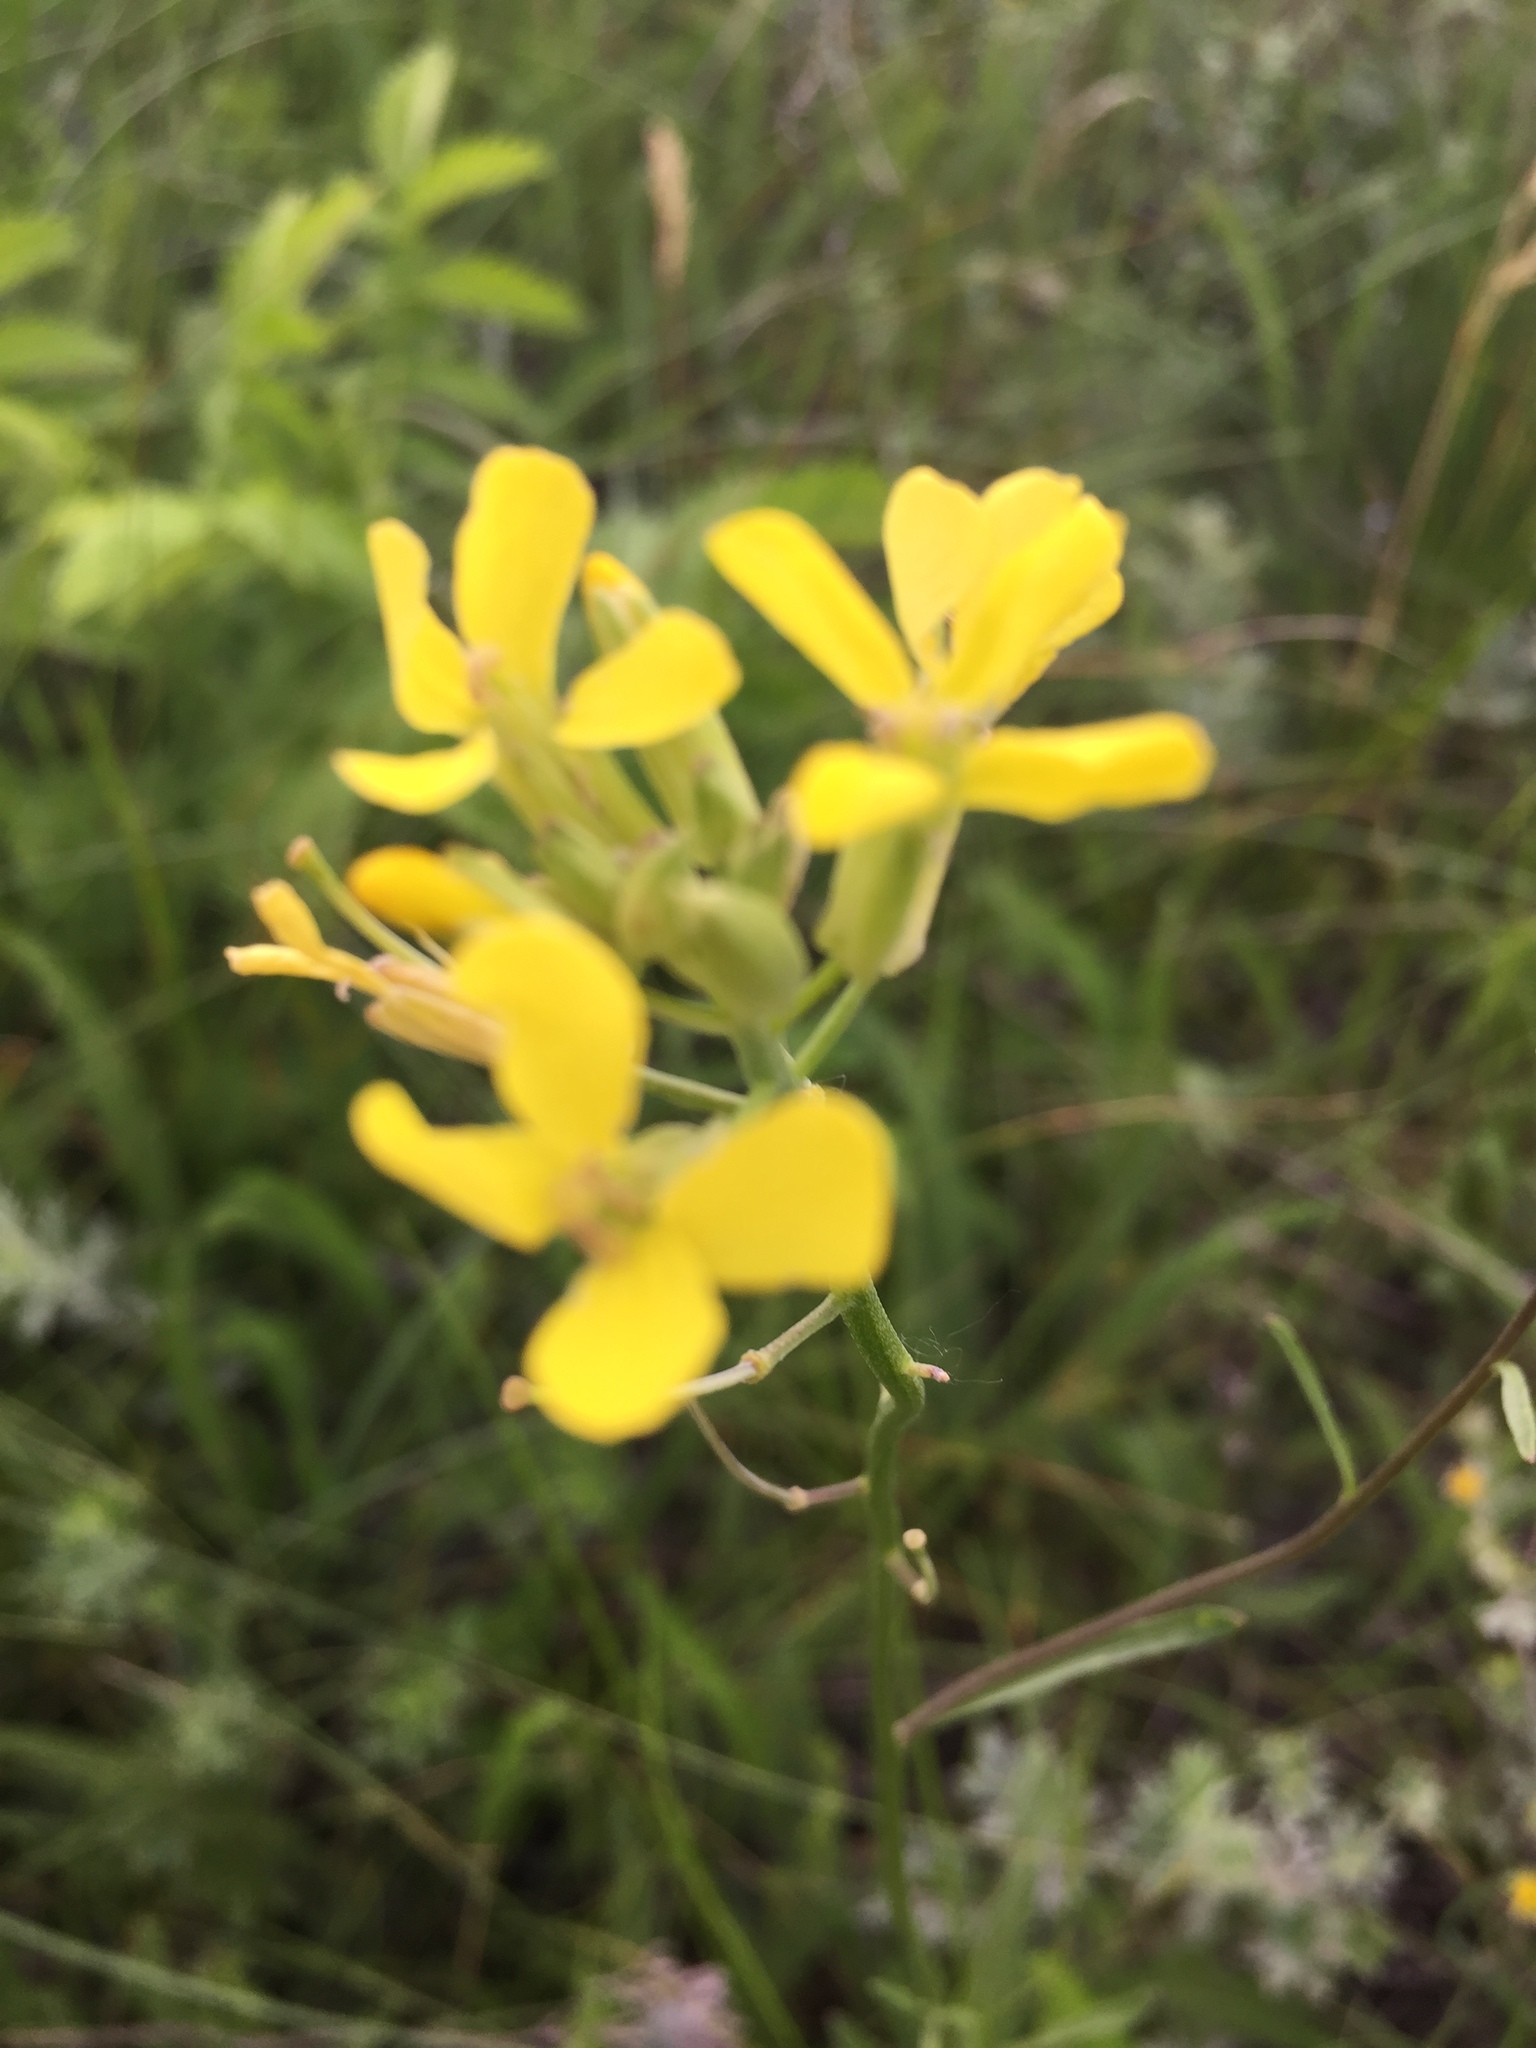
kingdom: Plantae
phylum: Tracheophyta
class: Magnoliopsida
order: Brassicales
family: Brassicaceae
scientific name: Brassicaceae
